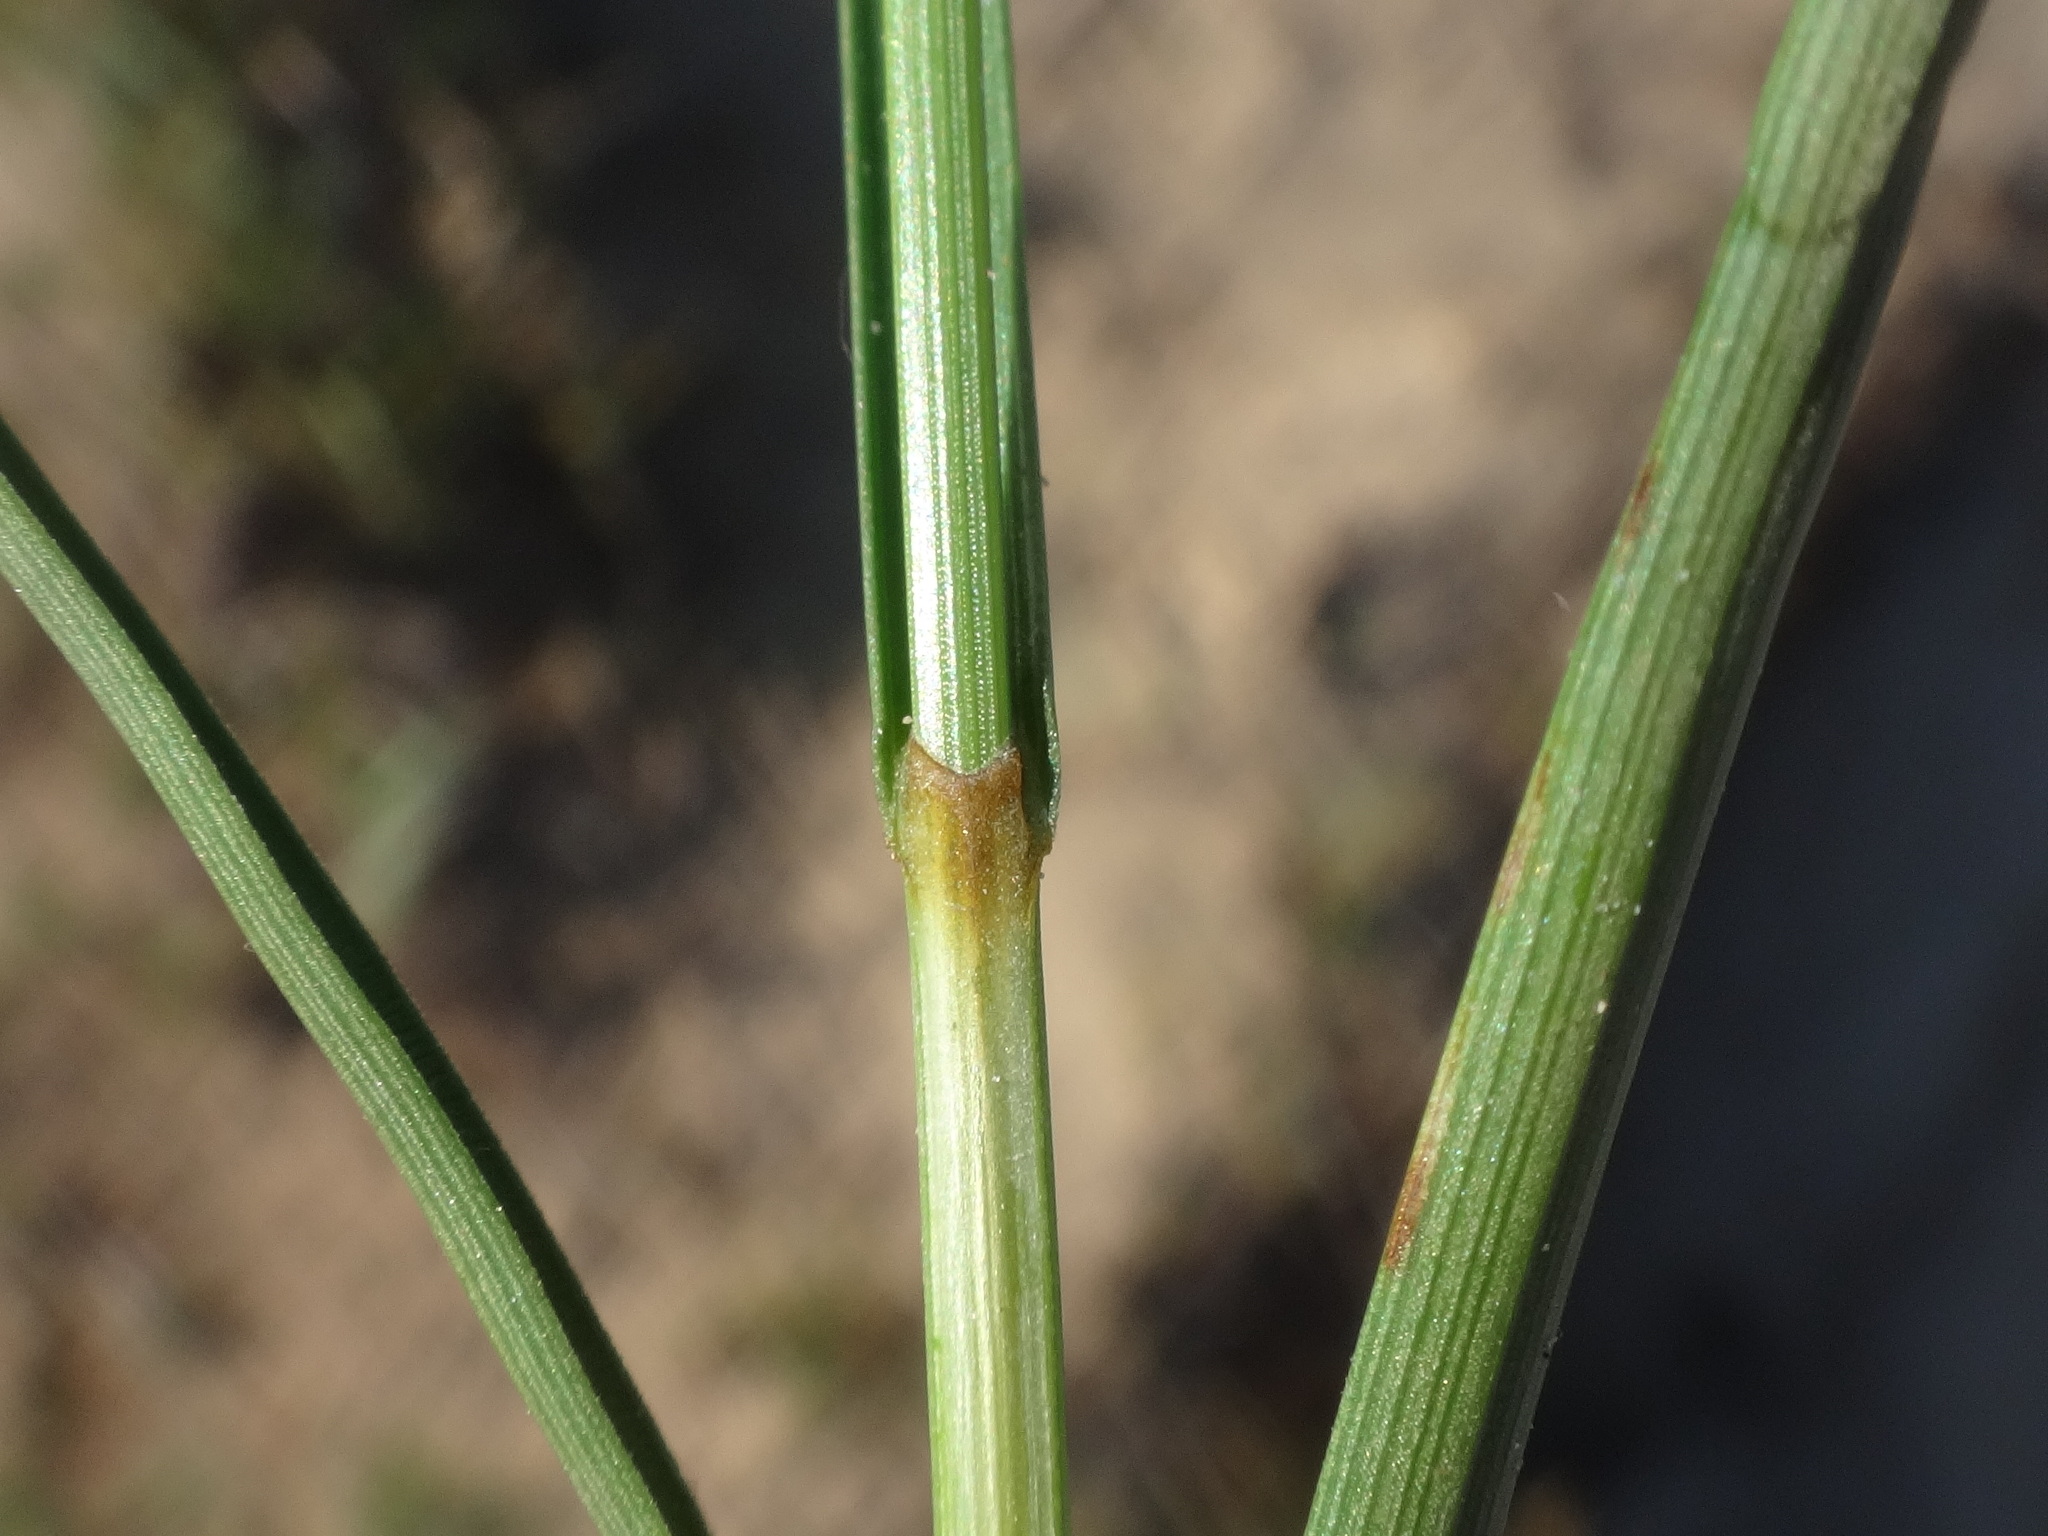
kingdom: Plantae
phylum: Tracheophyta
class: Liliopsida
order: Poales
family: Cyperaceae
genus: Carex
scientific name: Carex arenaria
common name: Sand sedge
